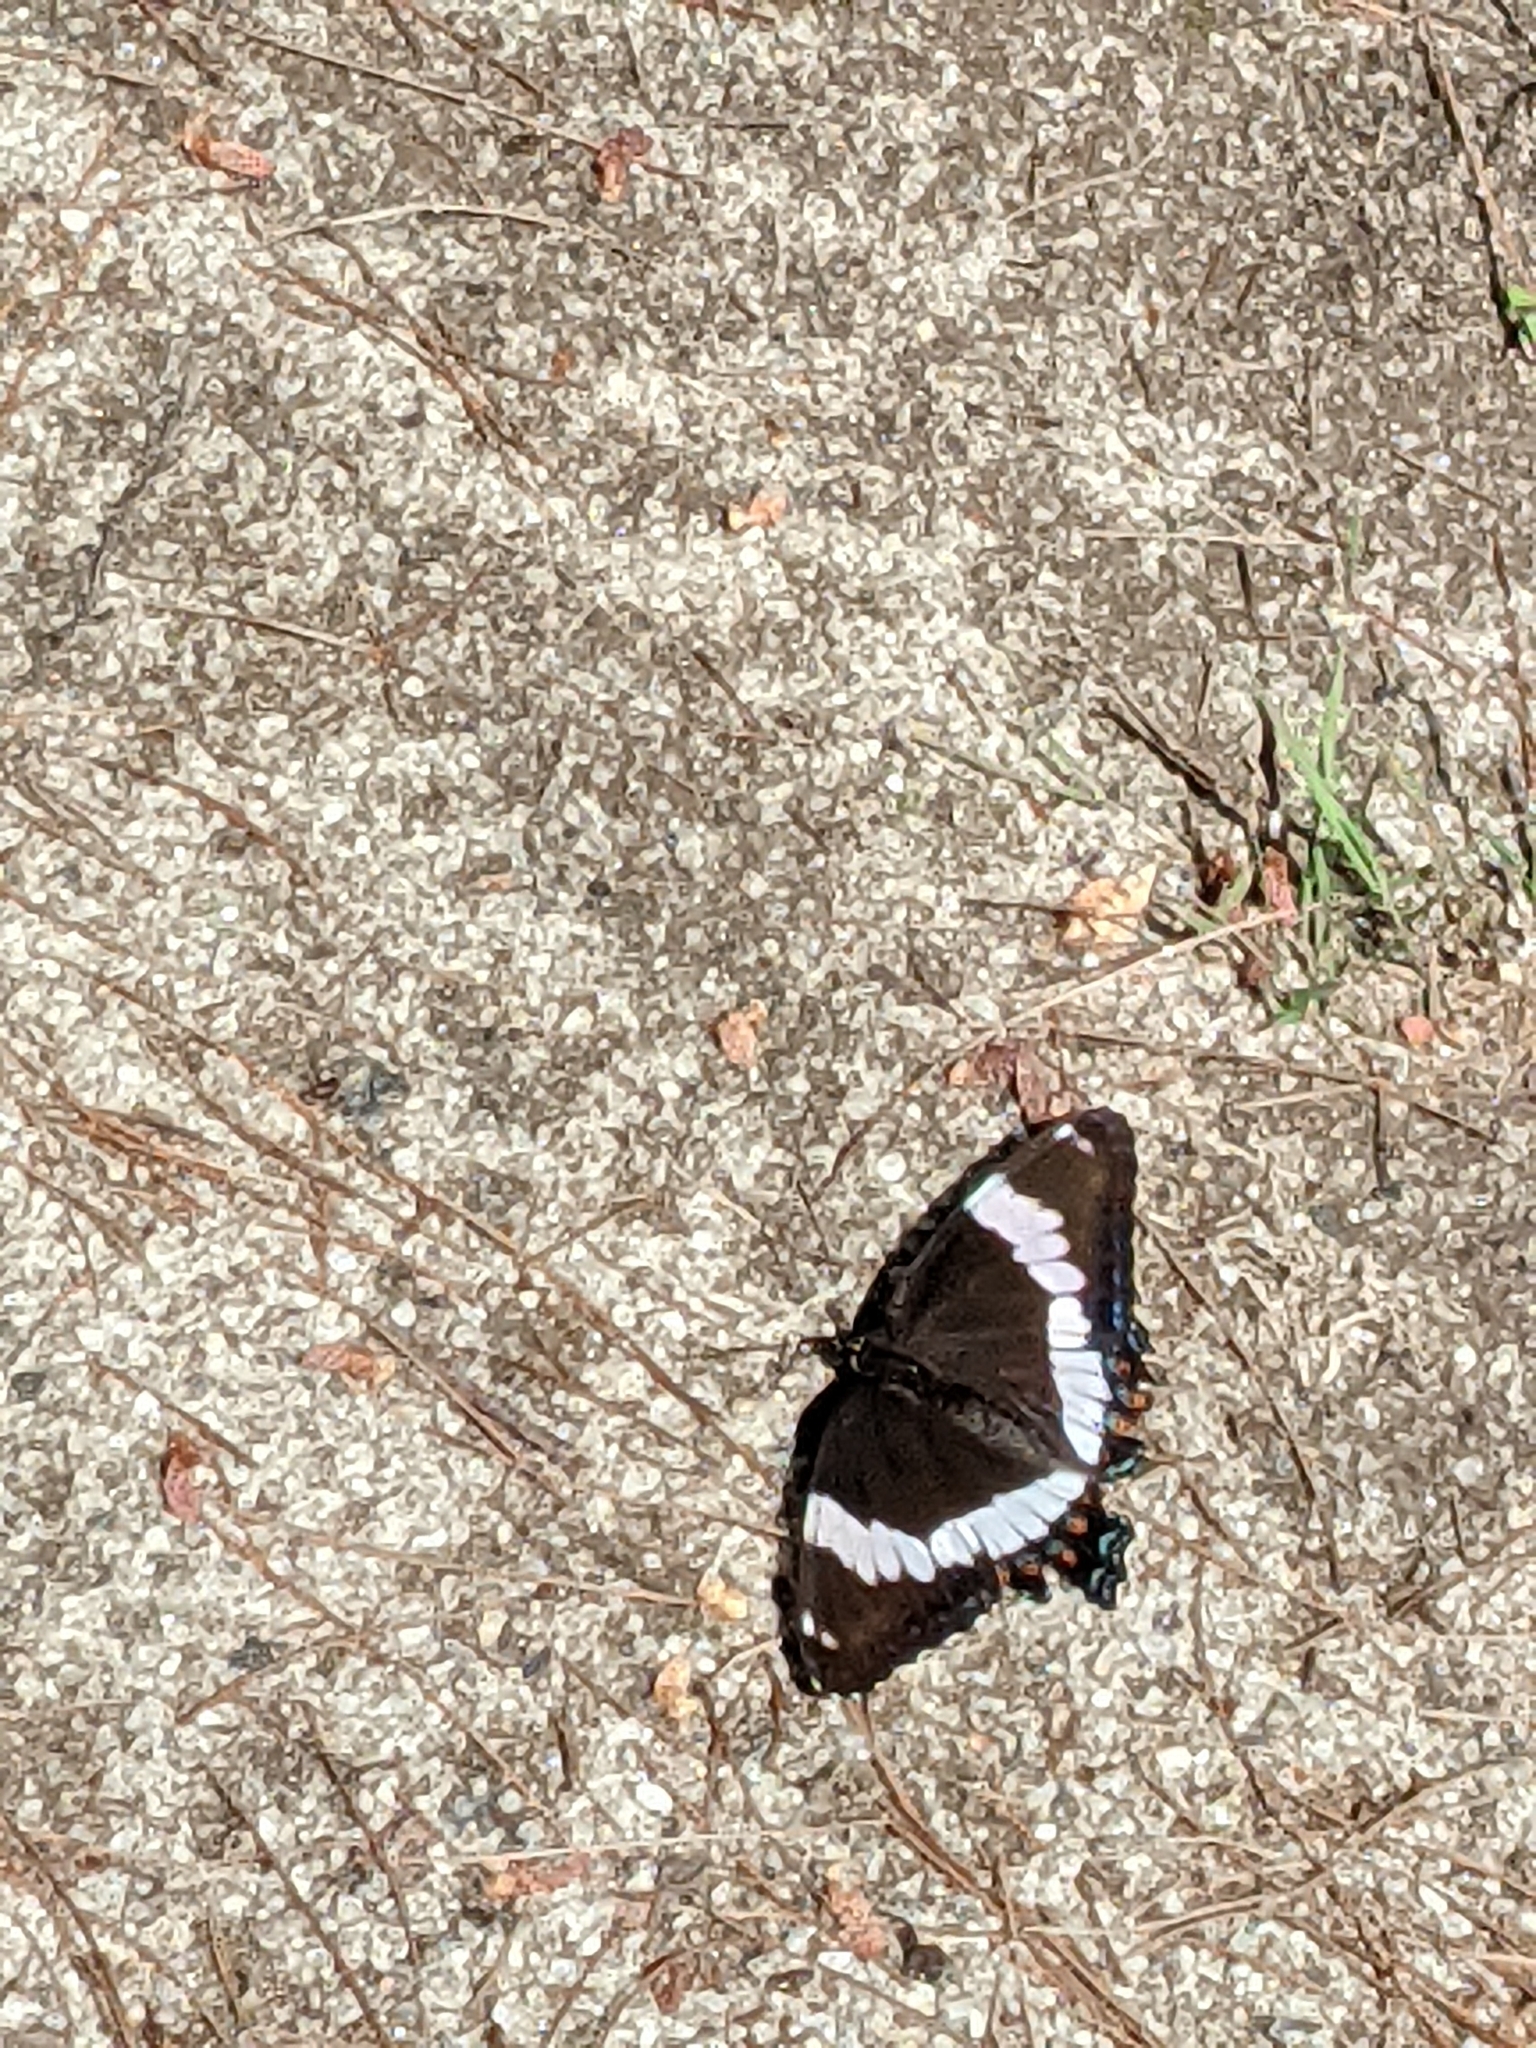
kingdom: Animalia
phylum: Arthropoda
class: Insecta
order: Lepidoptera
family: Nymphalidae
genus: Limenitis
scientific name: Limenitis arthemis
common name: Red-spotted admiral
